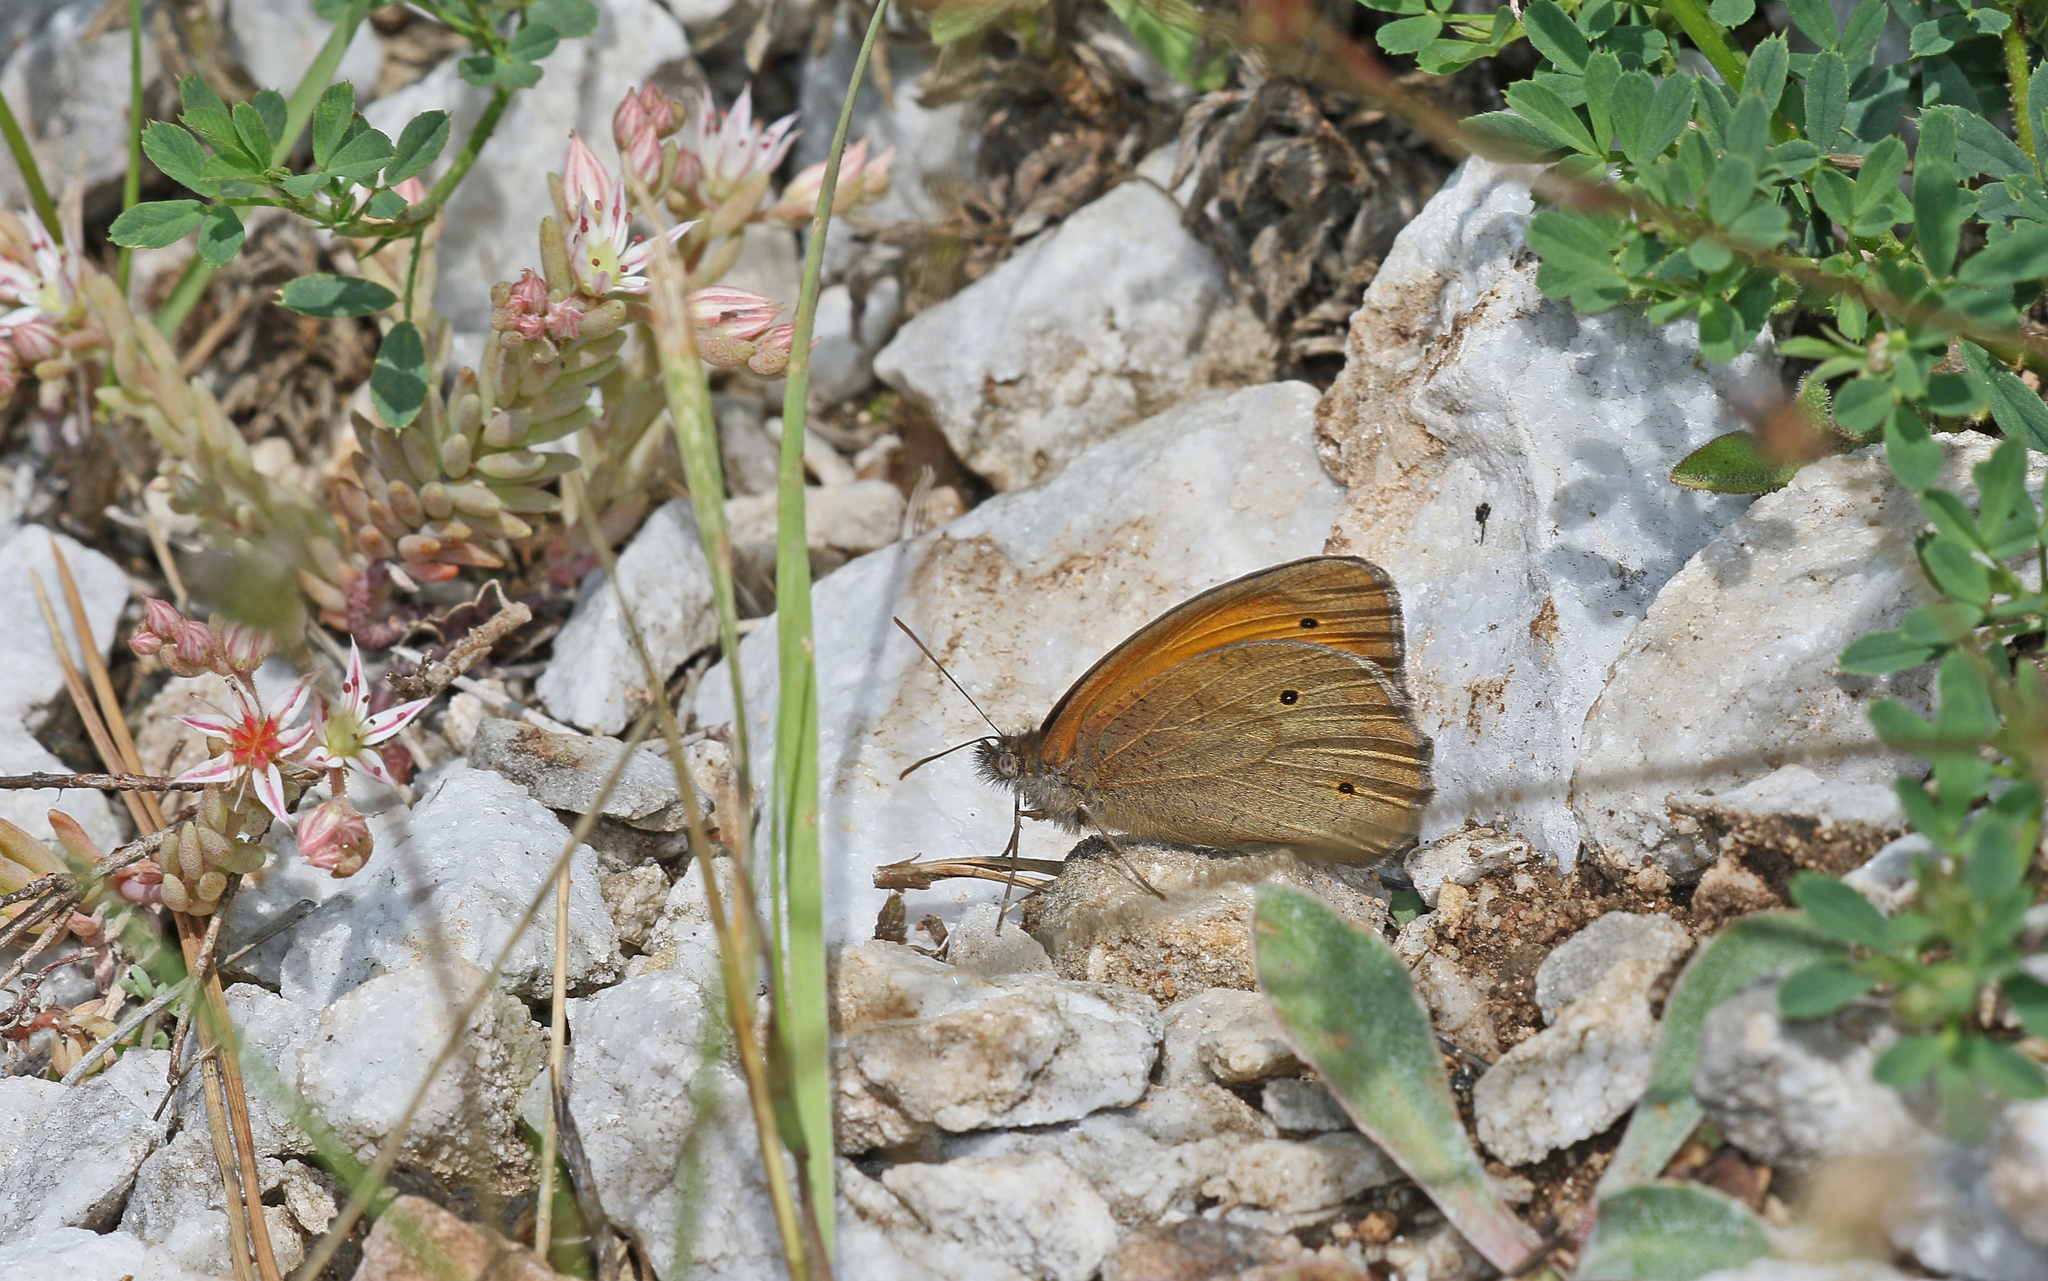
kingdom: Animalia
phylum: Arthropoda
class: Insecta
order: Lepidoptera
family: Nymphalidae
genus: Maniola
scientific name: Maniola jurtina
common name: Meadow brown
